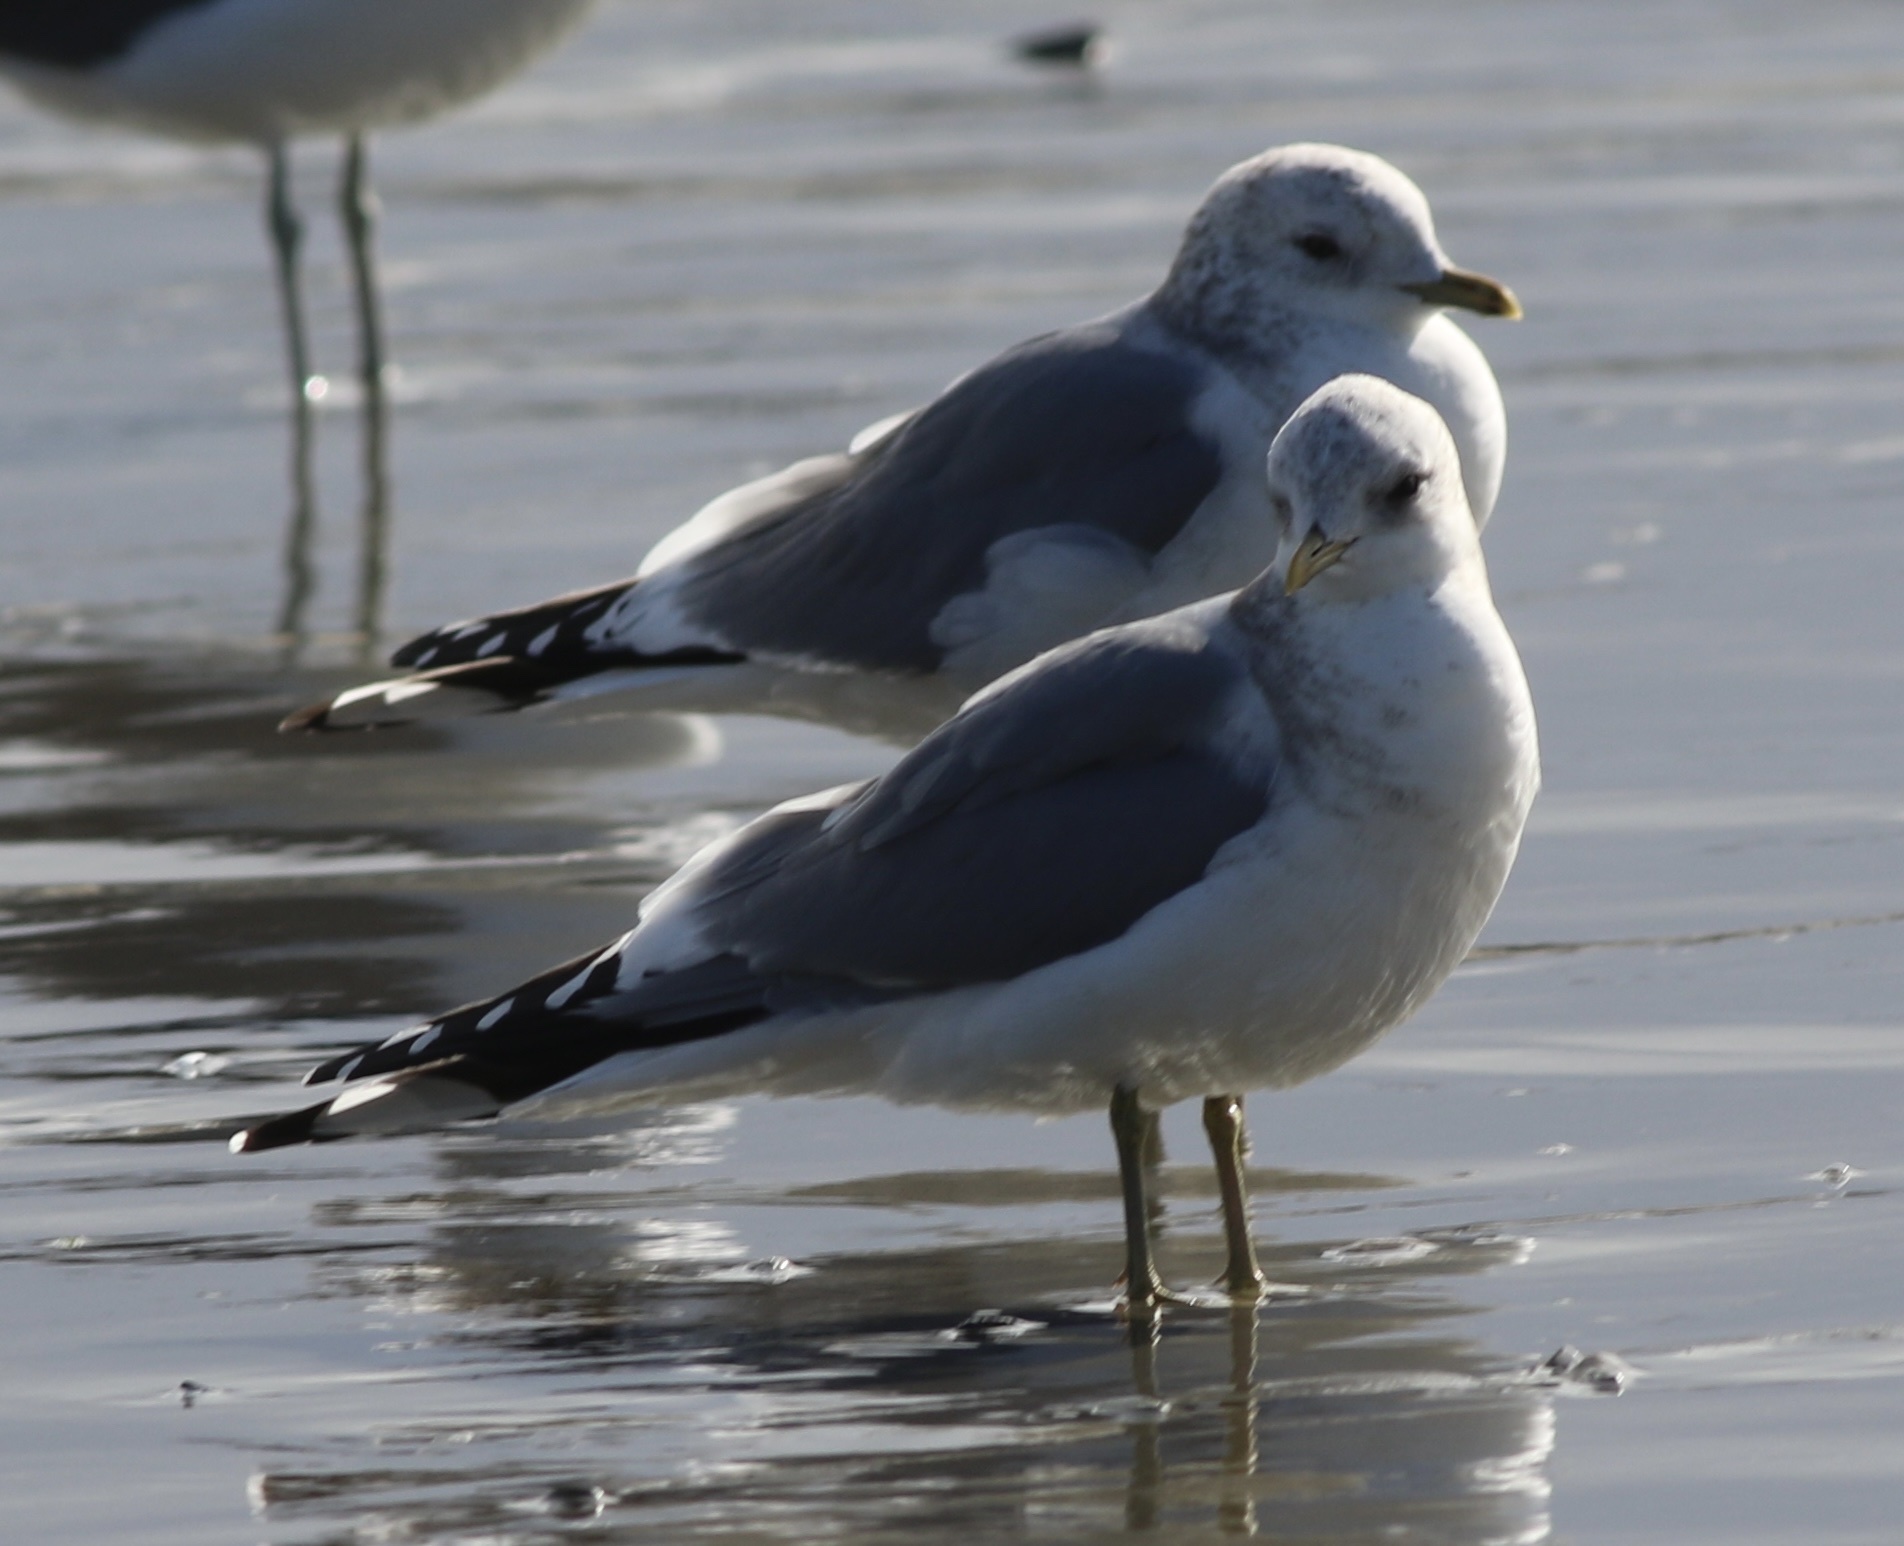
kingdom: Animalia
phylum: Chordata
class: Aves
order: Charadriiformes
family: Laridae
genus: Larus
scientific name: Larus brachyrhynchus
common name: Short-billed gull
